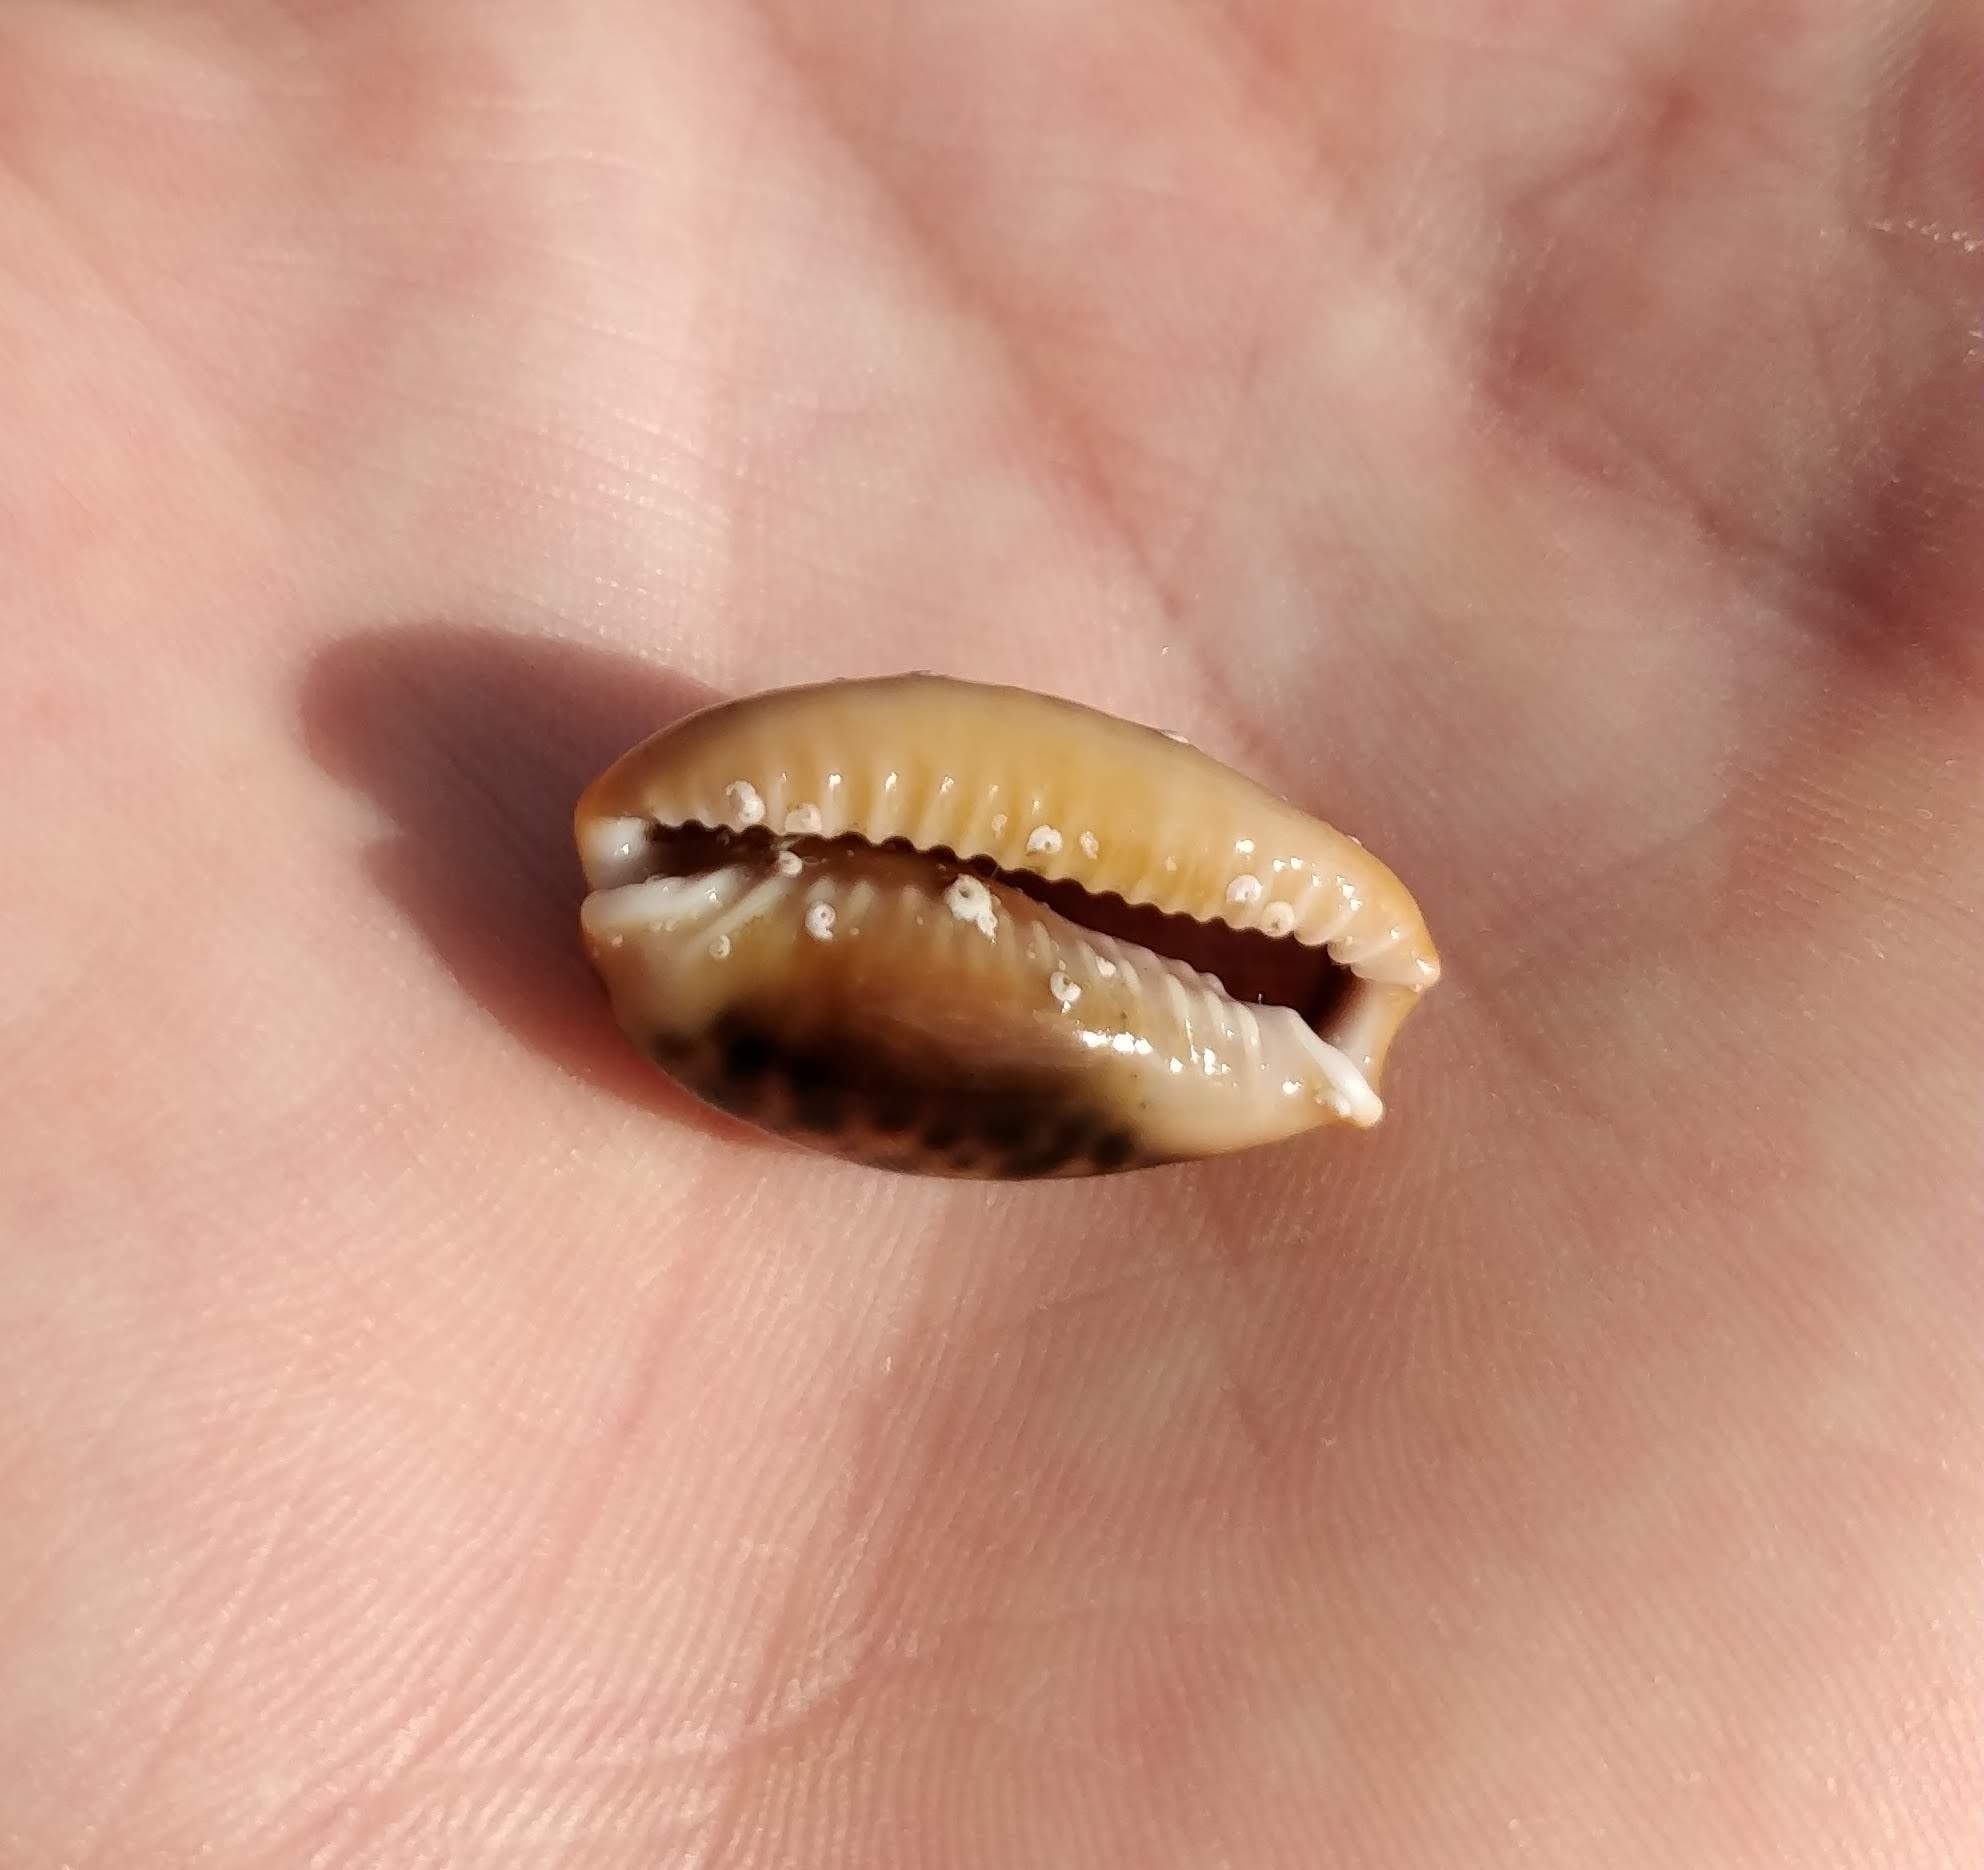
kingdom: Animalia
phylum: Mollusca
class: Gastropoda
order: Littorinimorpha
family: Cypraeidae
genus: Naria
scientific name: Naria spurca
